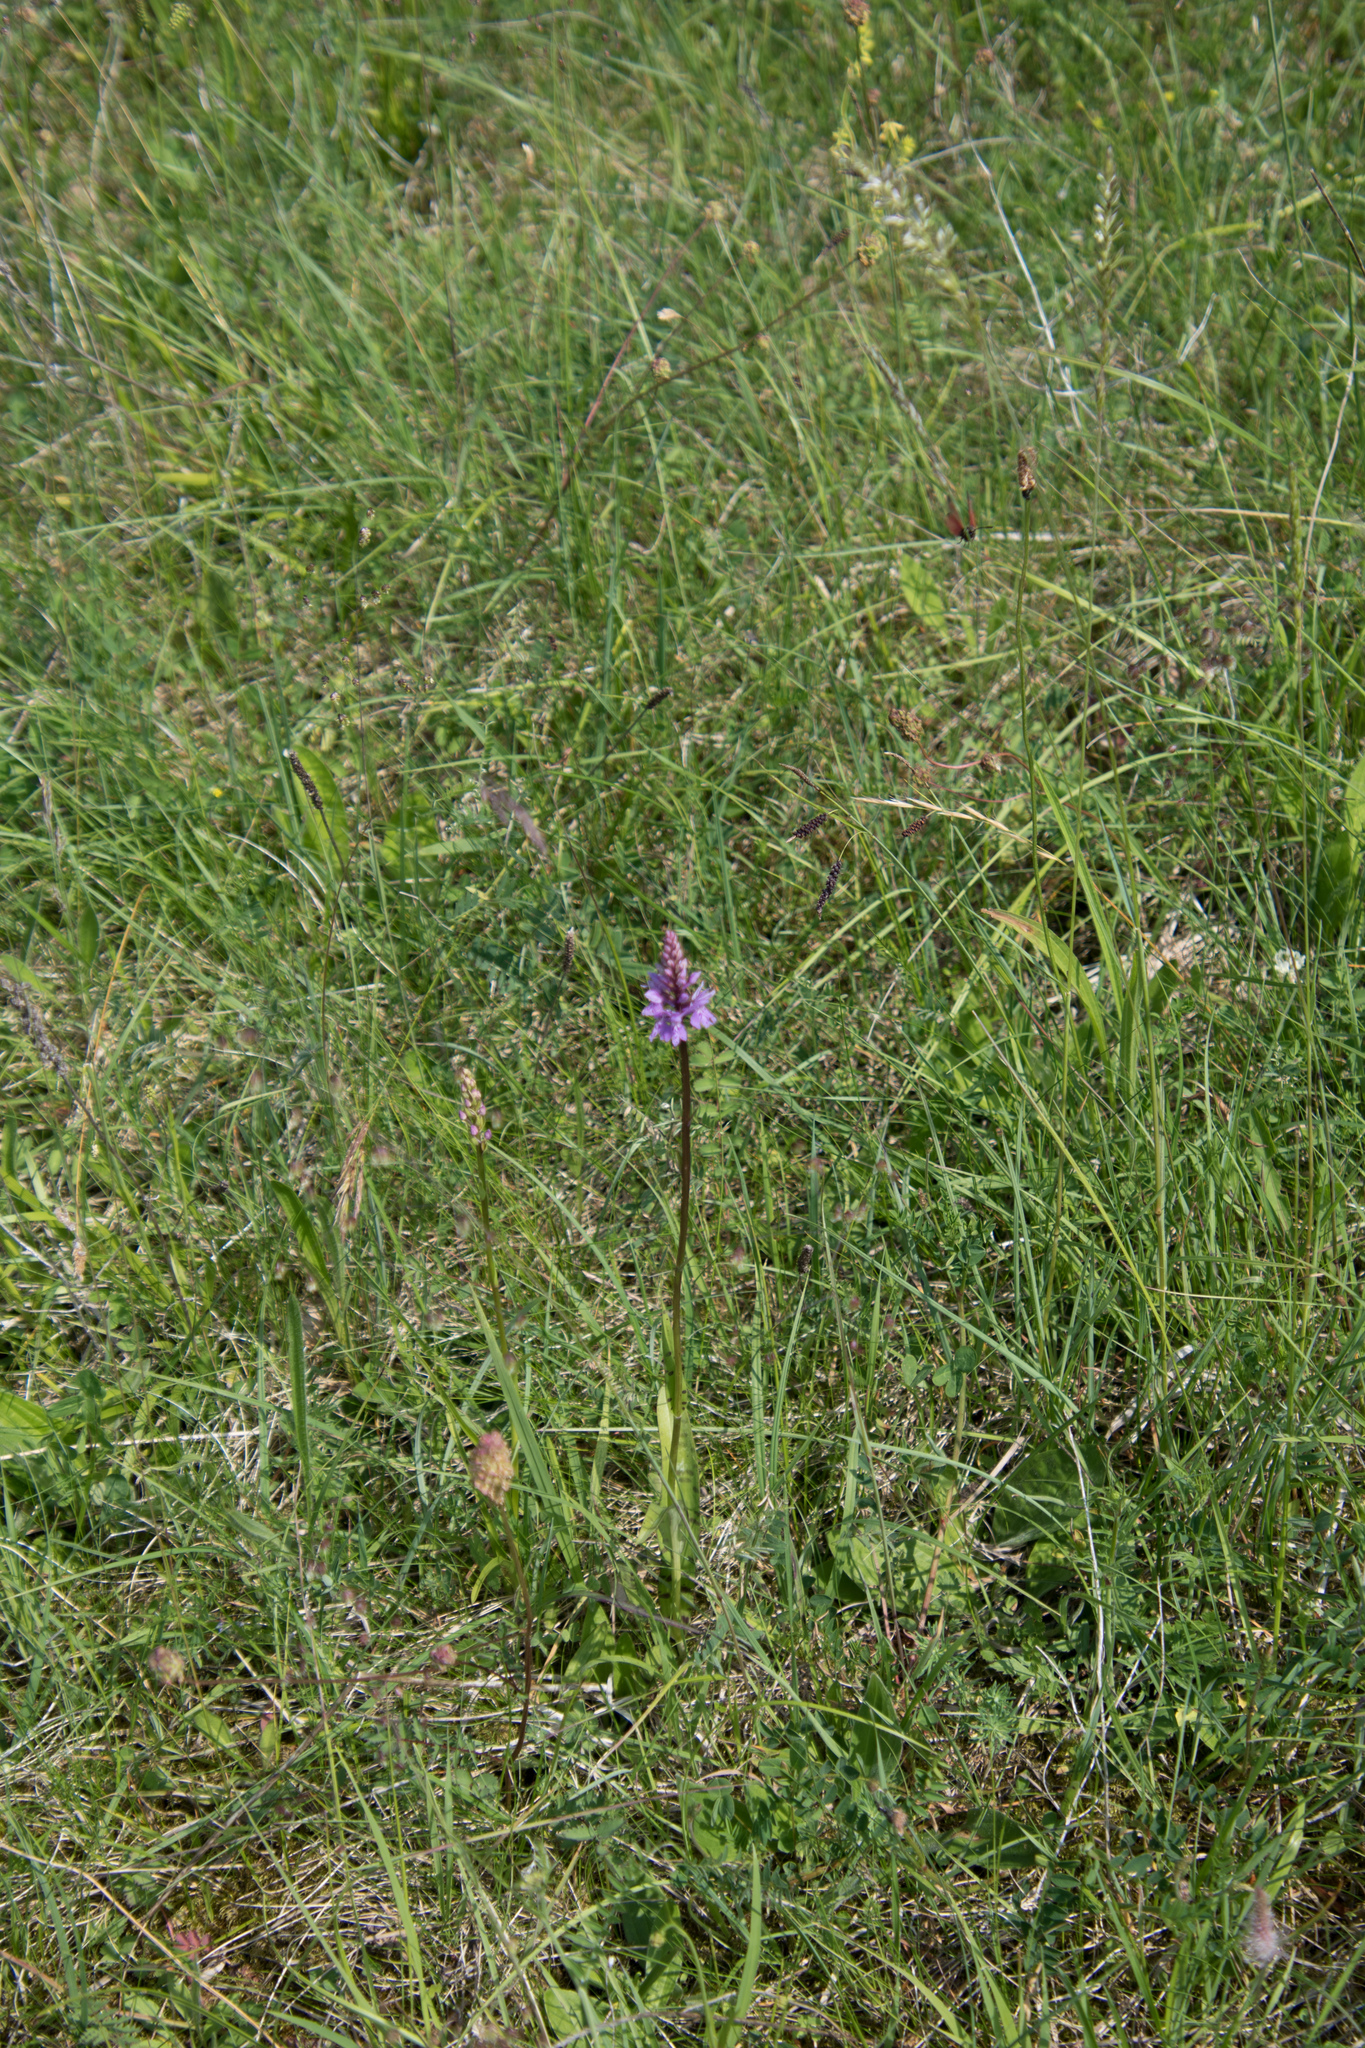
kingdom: Plantae
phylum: Tracheophyta
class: Liliopsida
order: Asparagales
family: Orchidaceae
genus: Dactylorhiza
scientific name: Dactylorhiza maculata
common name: Heath spotted-orchid
